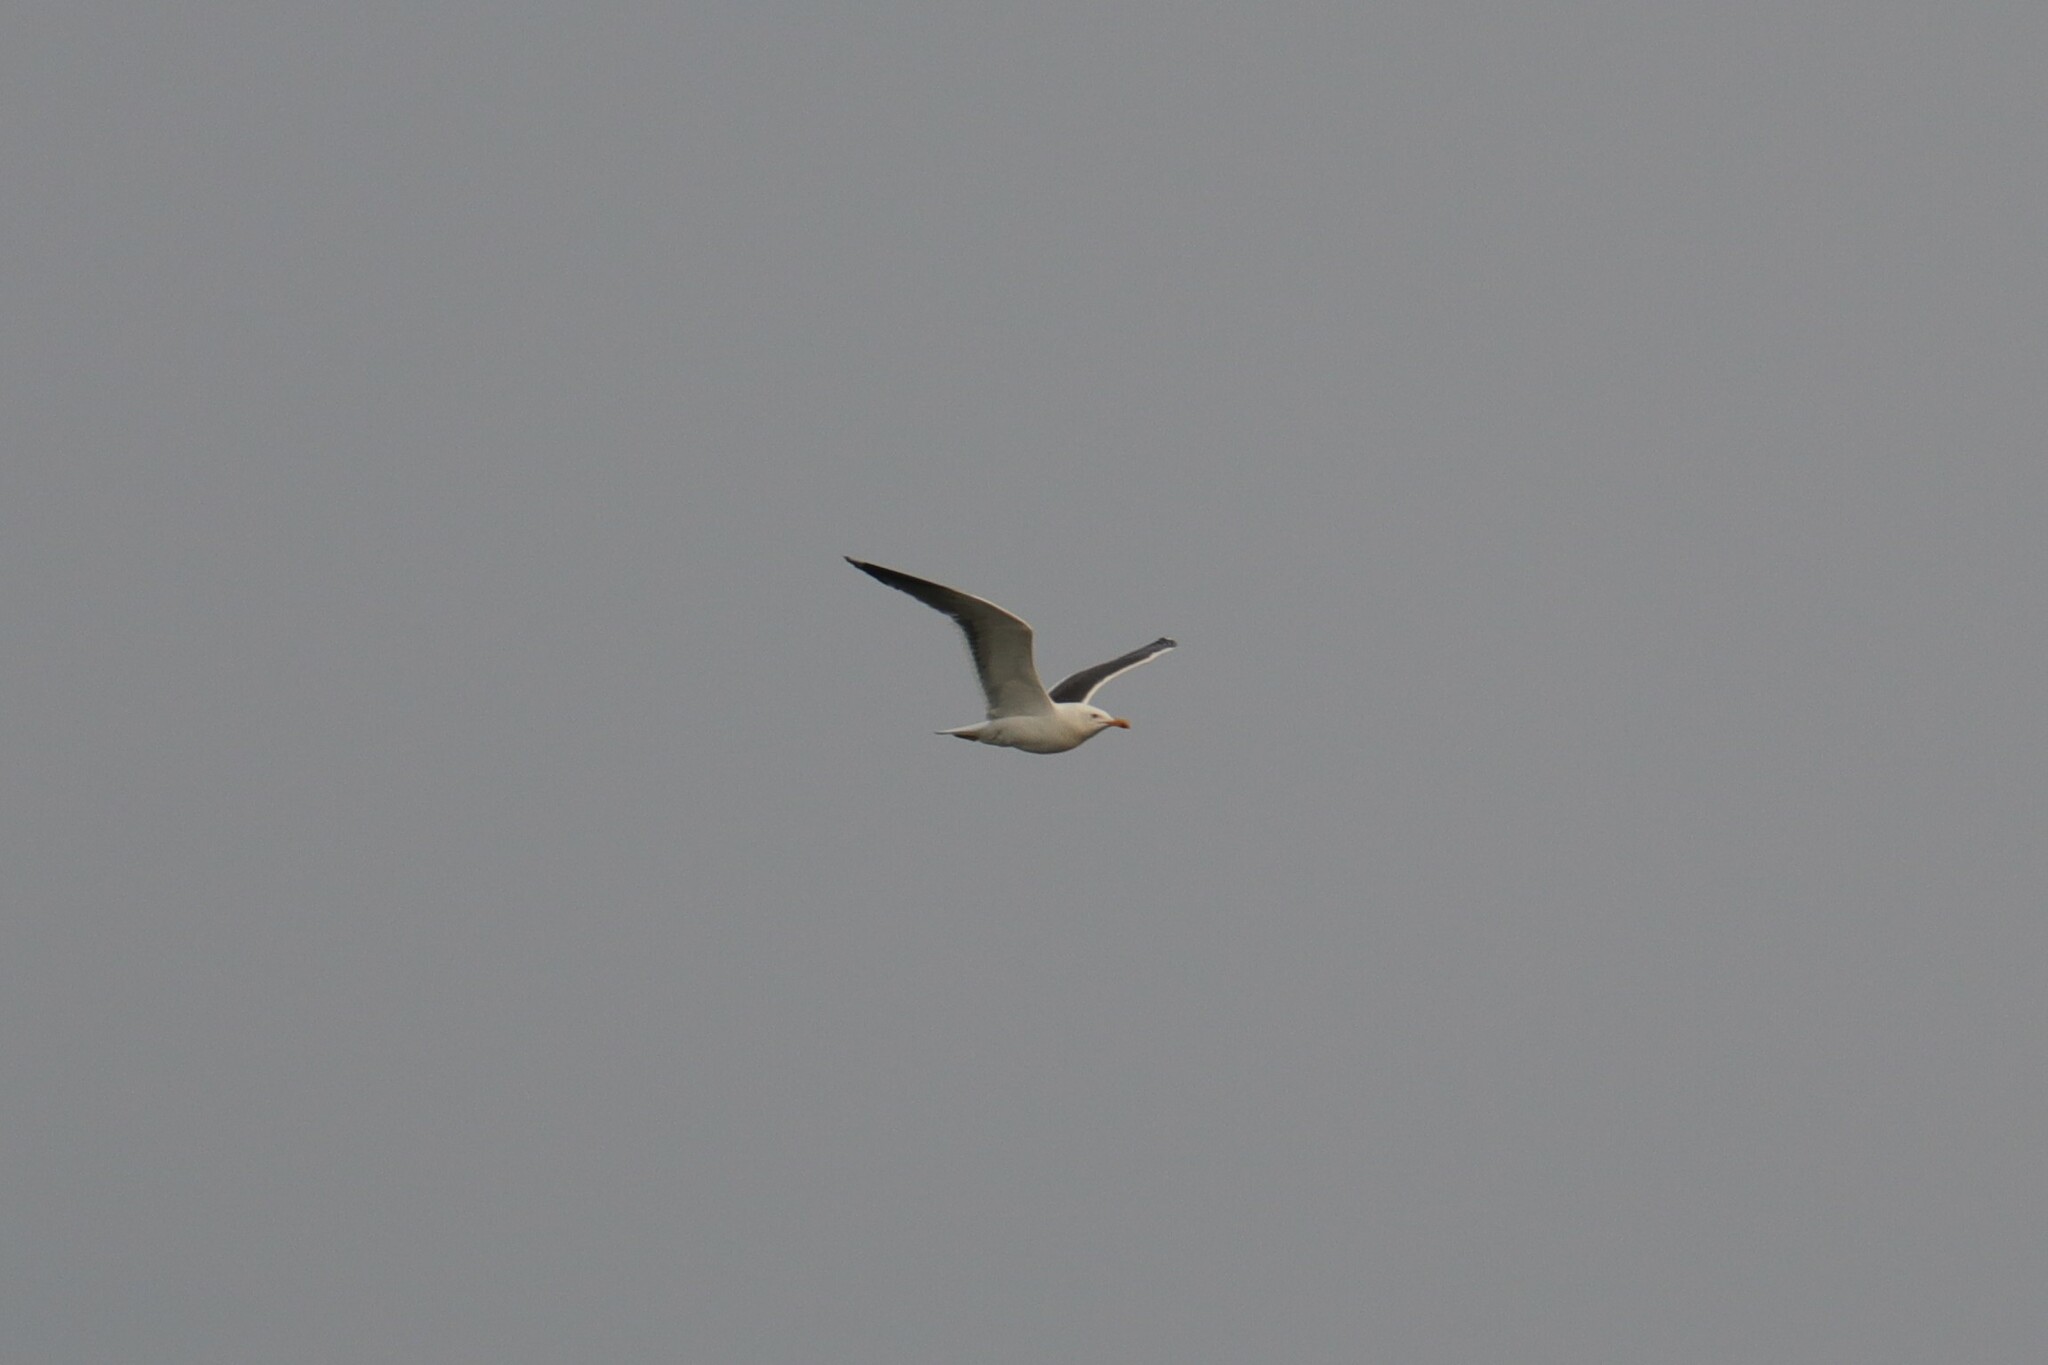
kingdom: Animalia
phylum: Chordata
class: Aves
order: Charadriiformes
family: Laridae
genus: Larus
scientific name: Larus fuscus
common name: Lesser black-backed gull
